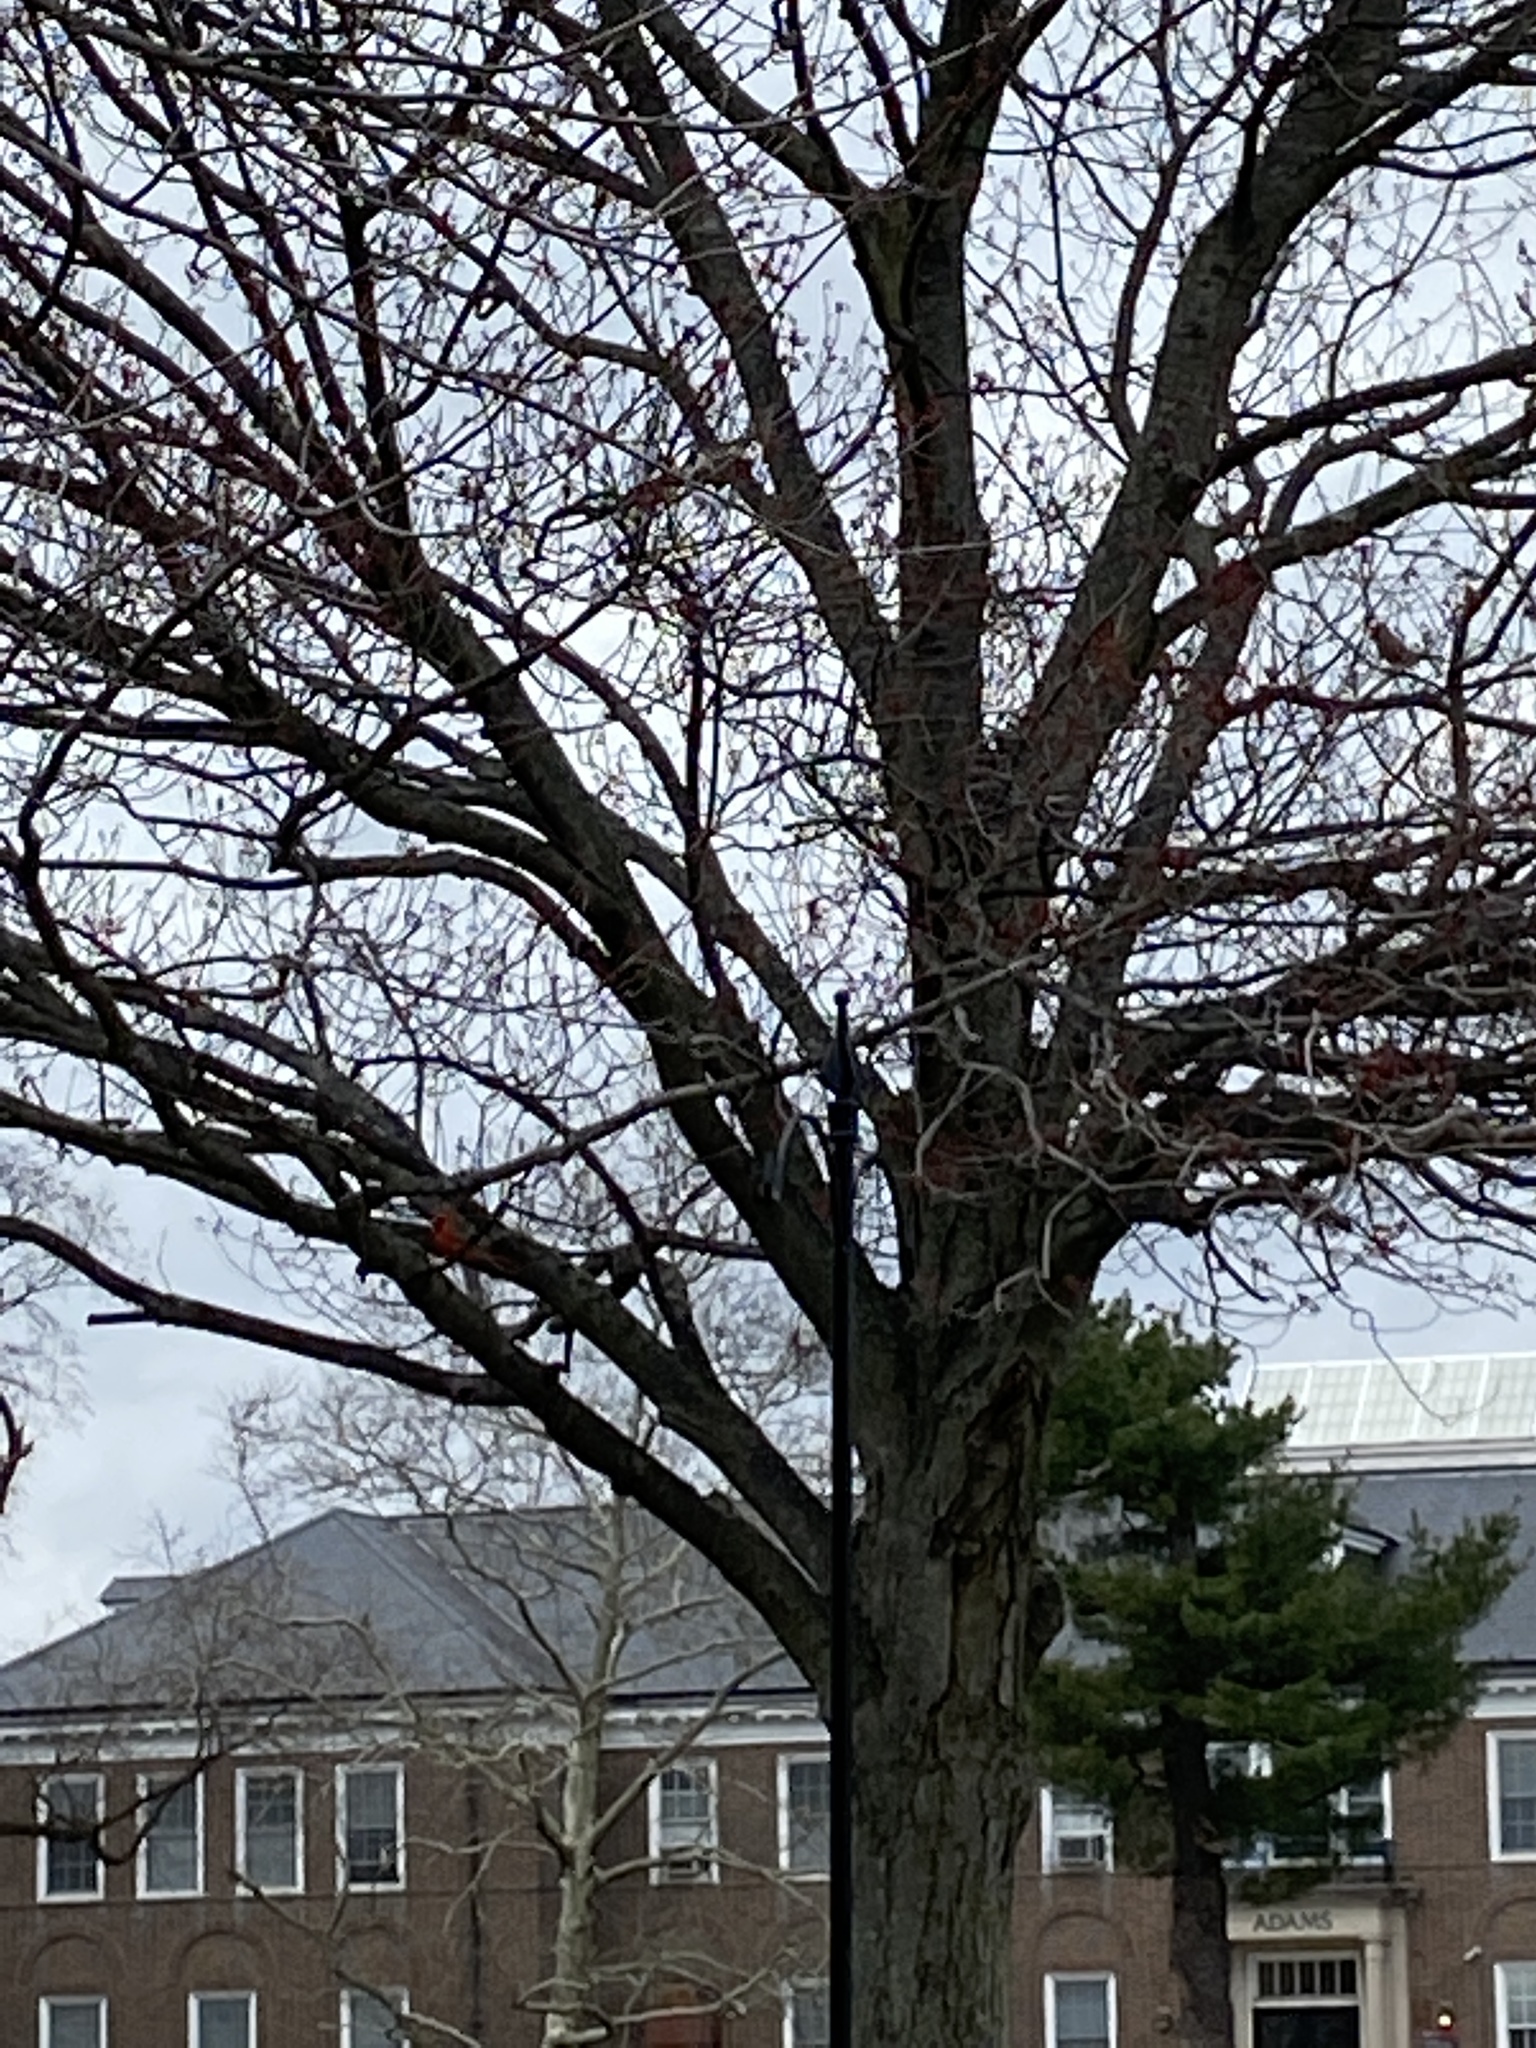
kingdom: Animalia
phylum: Chordata
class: Aves
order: Passeriformes
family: Cardinalidae
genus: Cardinalis
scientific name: Cardinalis cardinalis
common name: Northern cardinal
